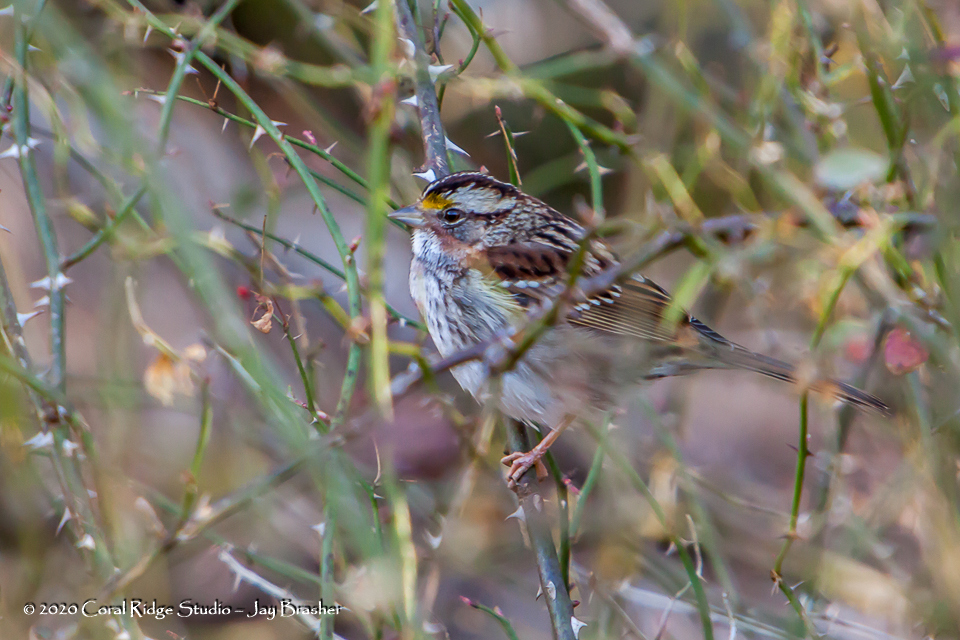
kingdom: Animalia
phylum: Chordata
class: Aves
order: Passeriformes
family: Passerellidae
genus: Zonotrichia
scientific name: Zonotrichia albicollis
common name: White-throated sparrow
